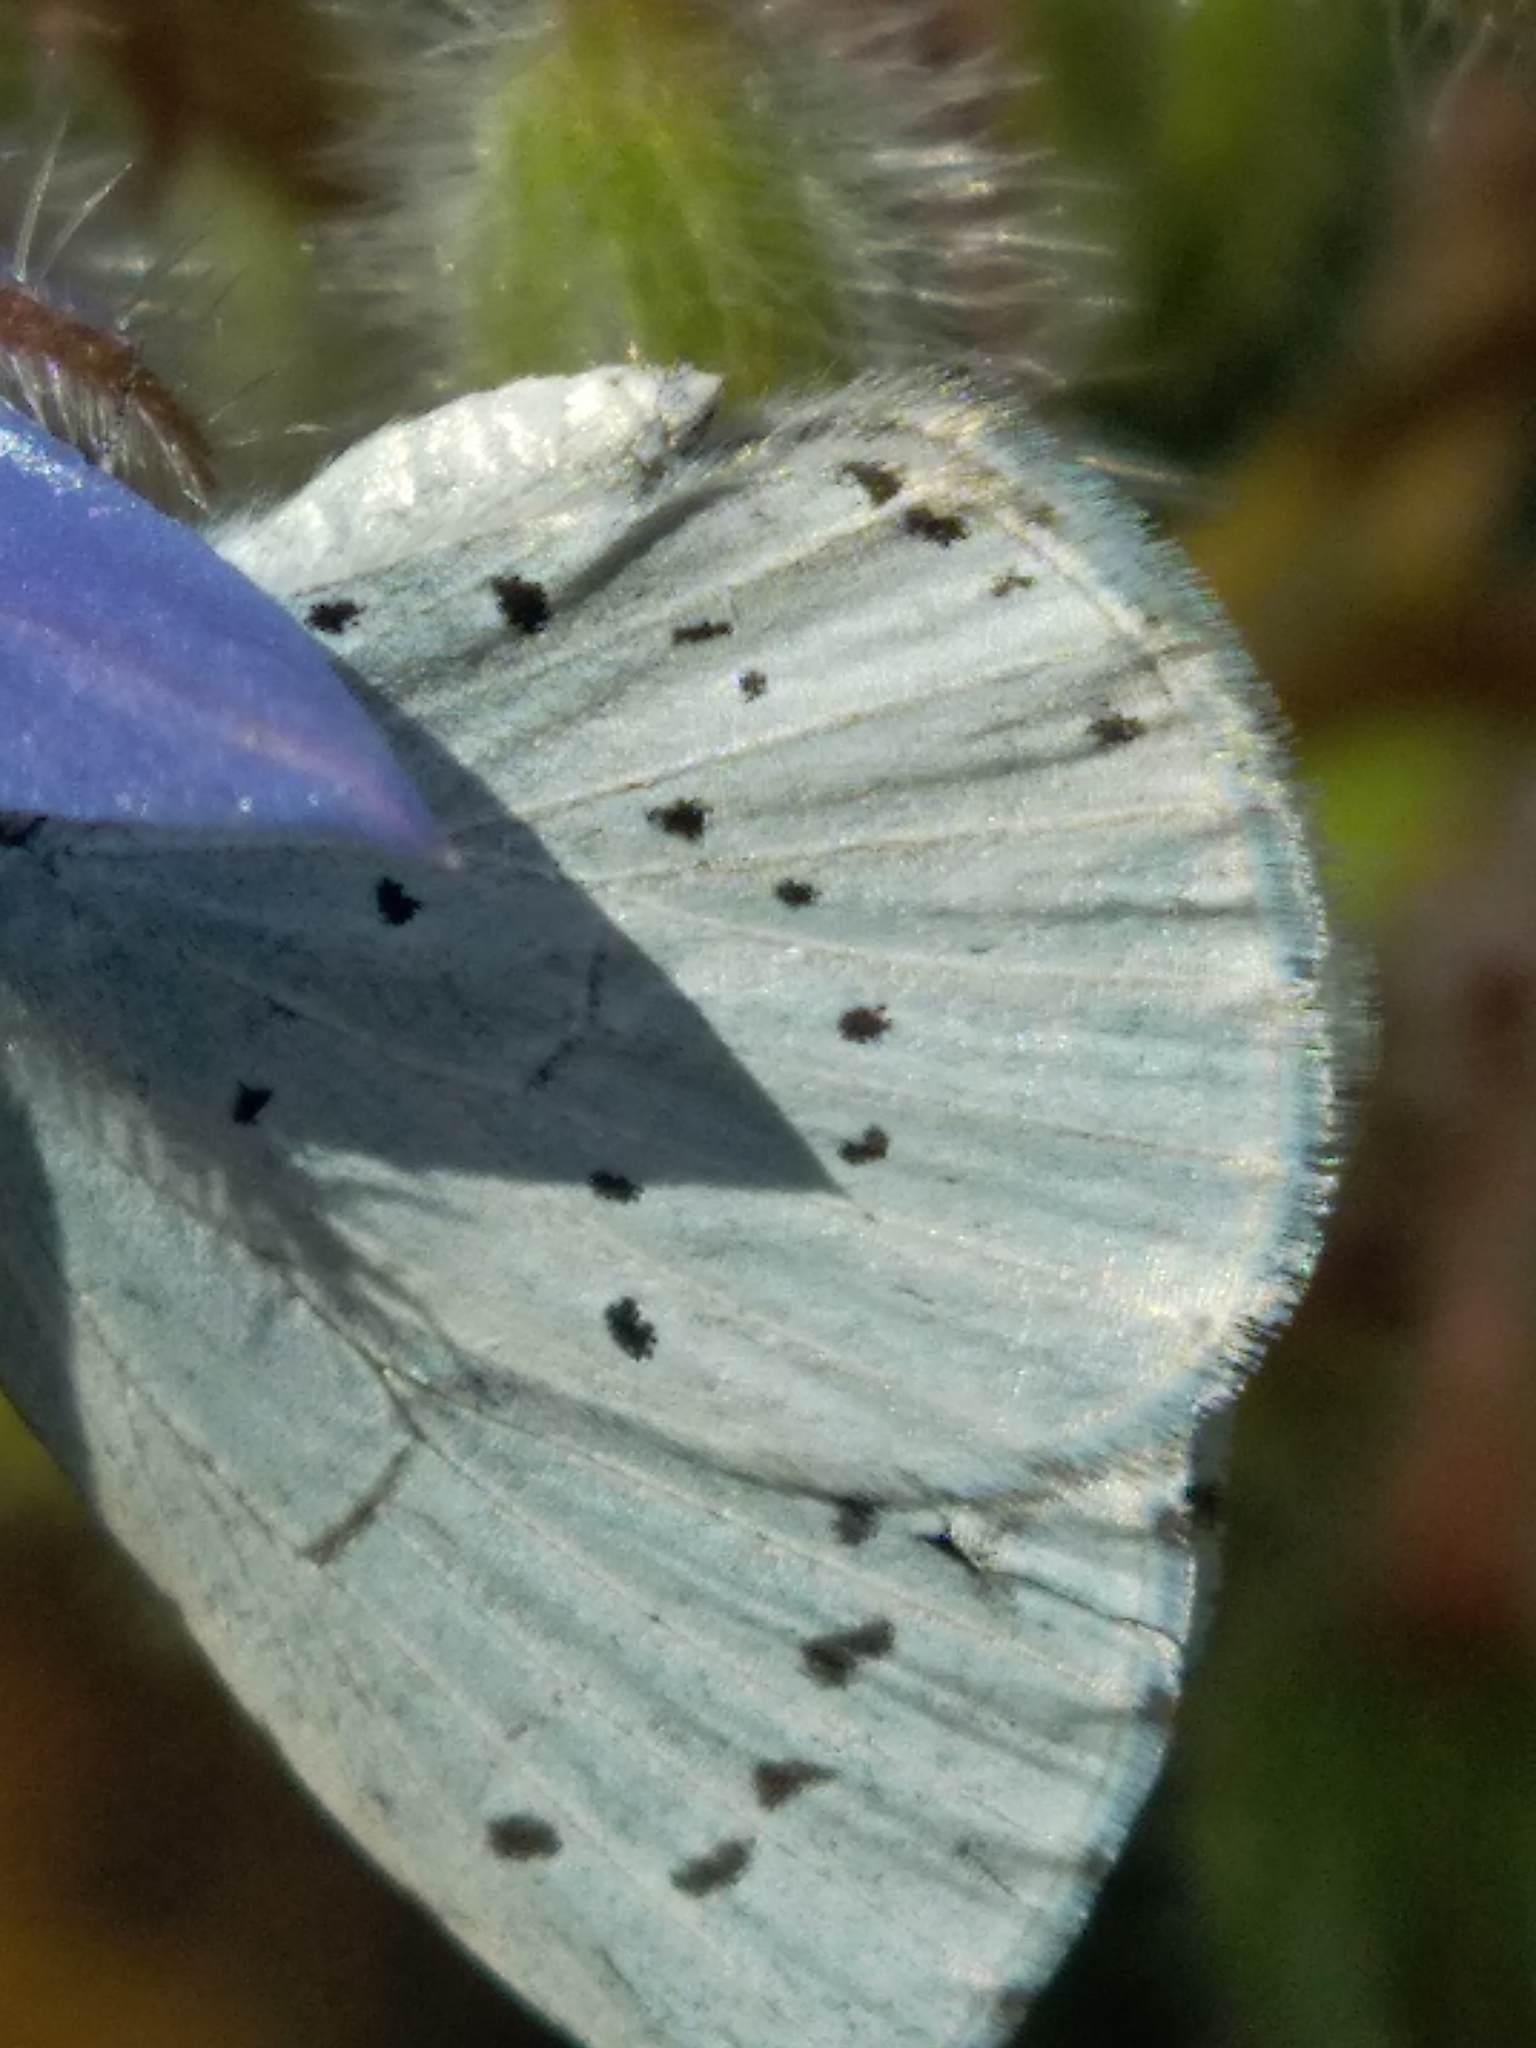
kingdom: Animalia
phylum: Arthropoda
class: Insecta
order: Lepidoptera
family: Lycaenidae
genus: Celastrina
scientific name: Celastrina argiolus
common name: Holly blue
